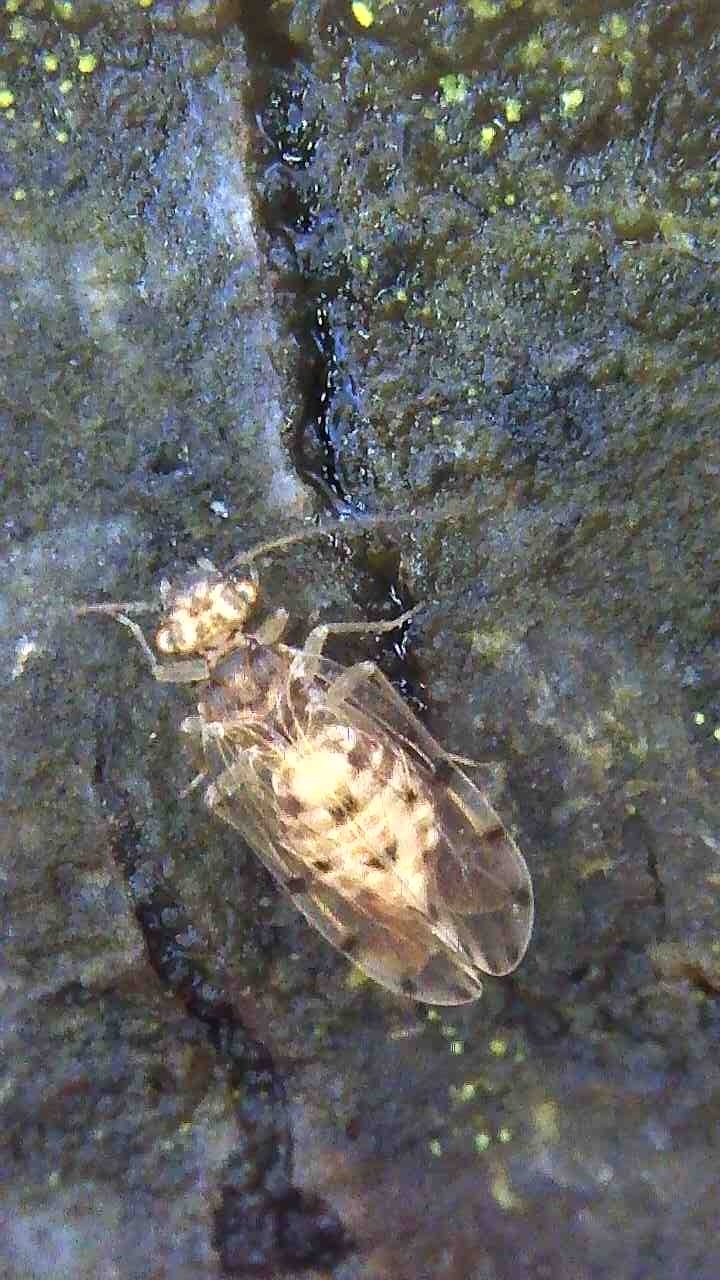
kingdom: Animalia
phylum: Arthropoda
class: Insecta
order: Psocodea
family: Ectopsocidae
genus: Ectopsocus
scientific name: Ectopsocus petersi
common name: Medium-sized bark louse
